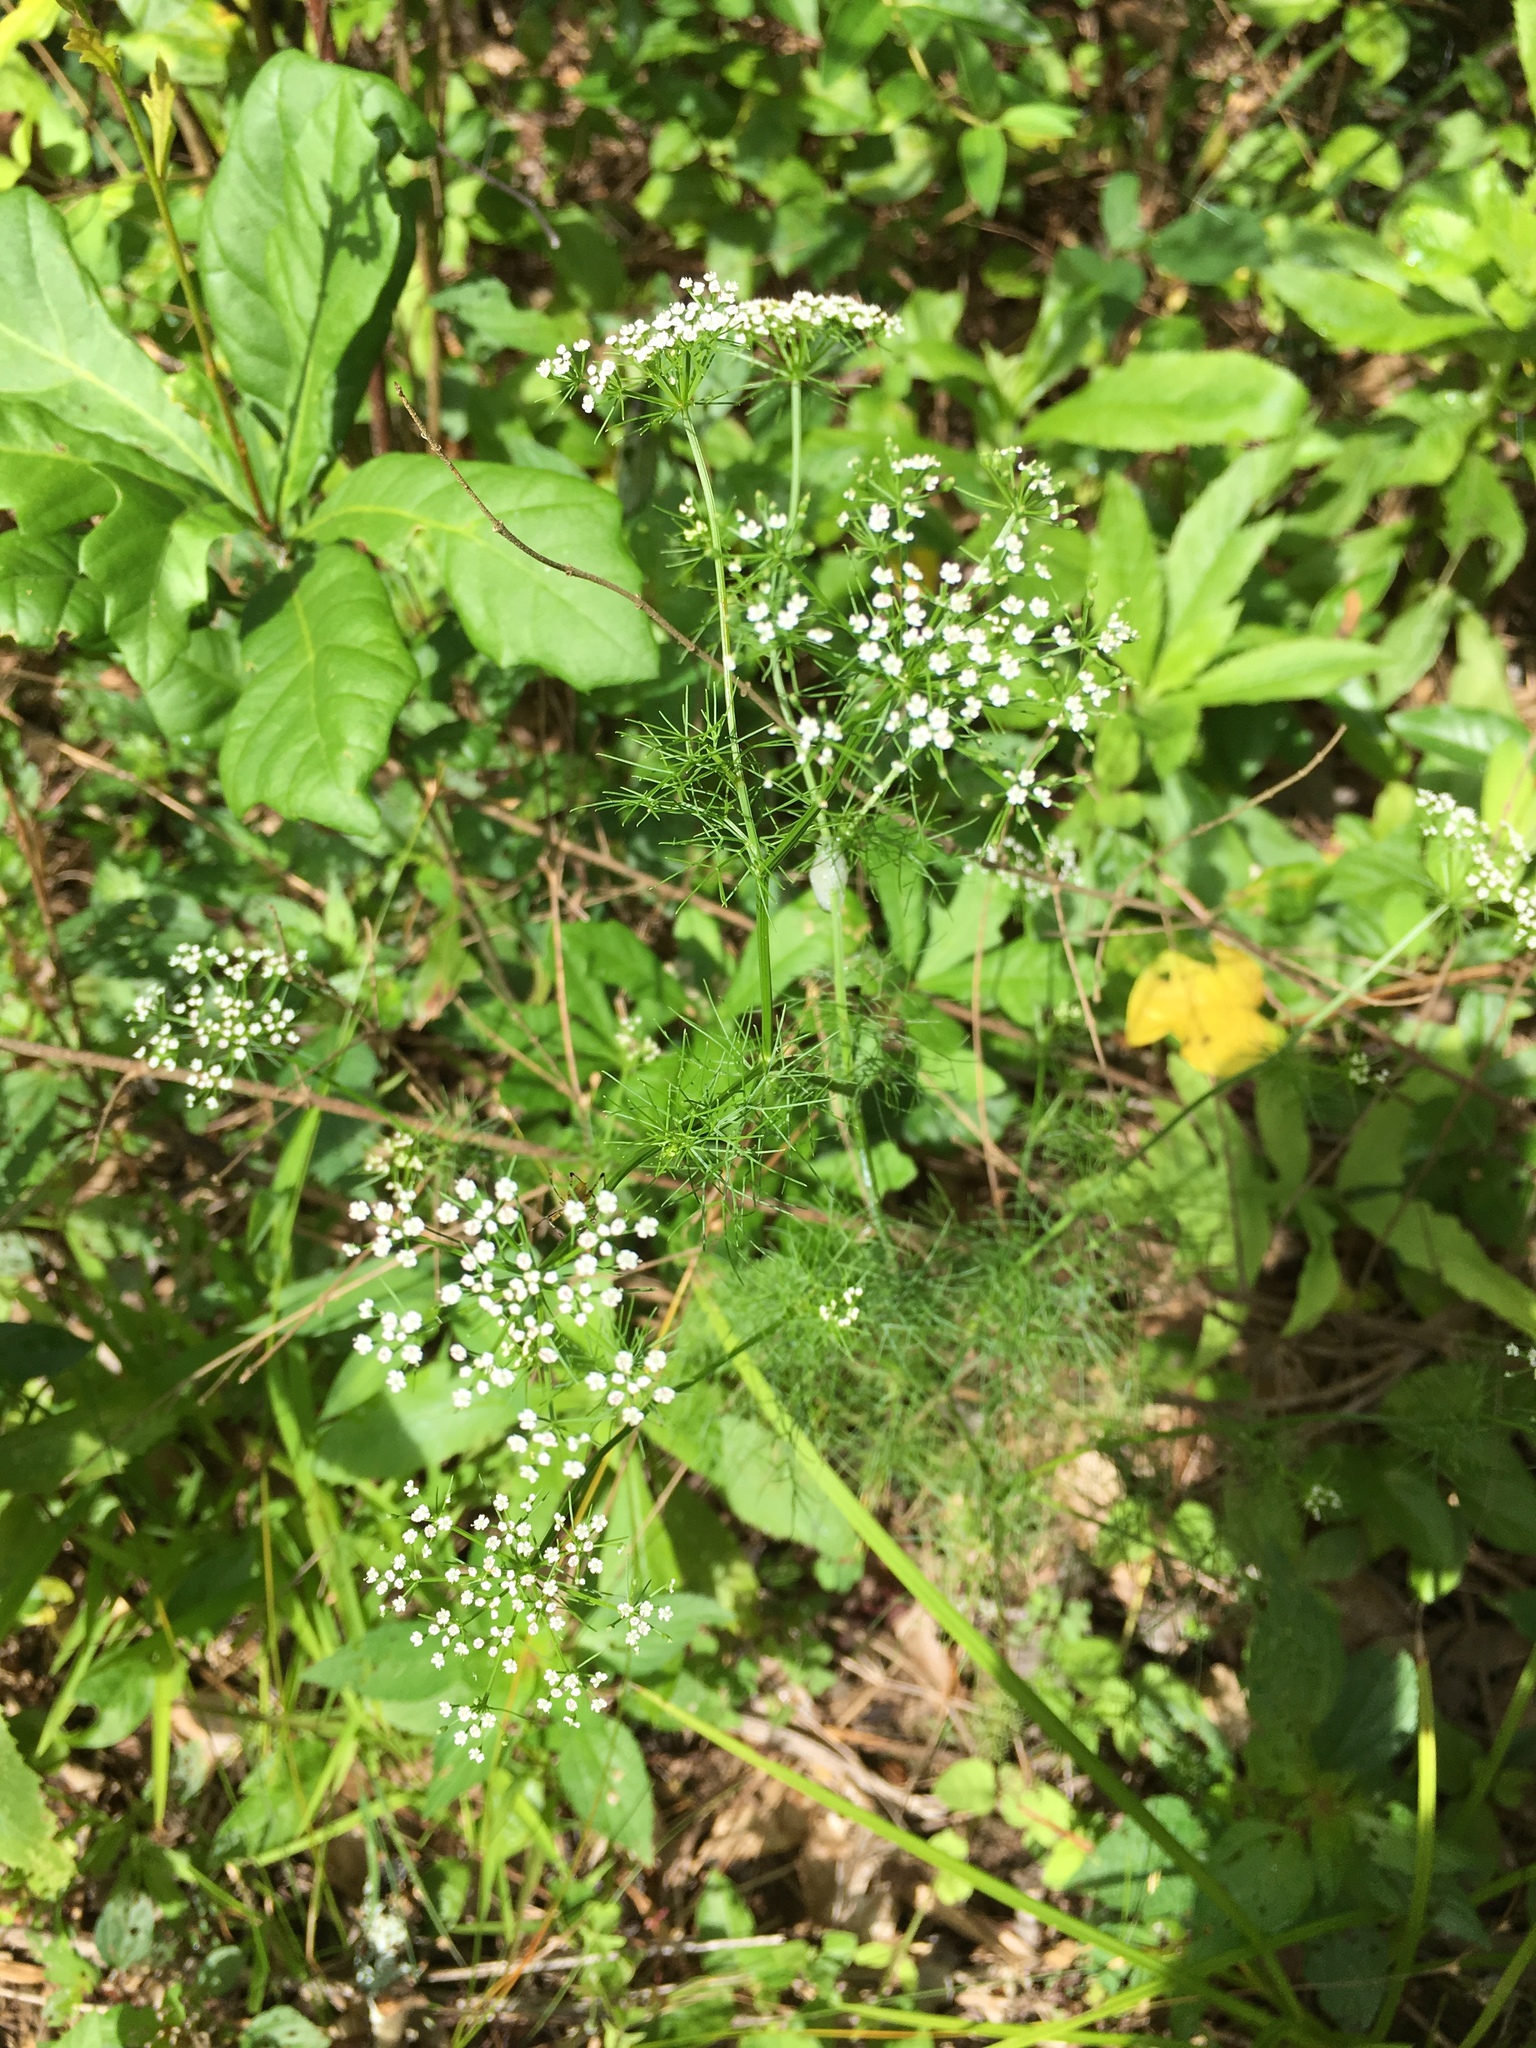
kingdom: Plantae
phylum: Tracheophyta
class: Magnoliopsida
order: Apiales
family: Apiaceae
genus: Ptilimnium
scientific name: Ptilimnium capillaceum
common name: Herbwilliam
